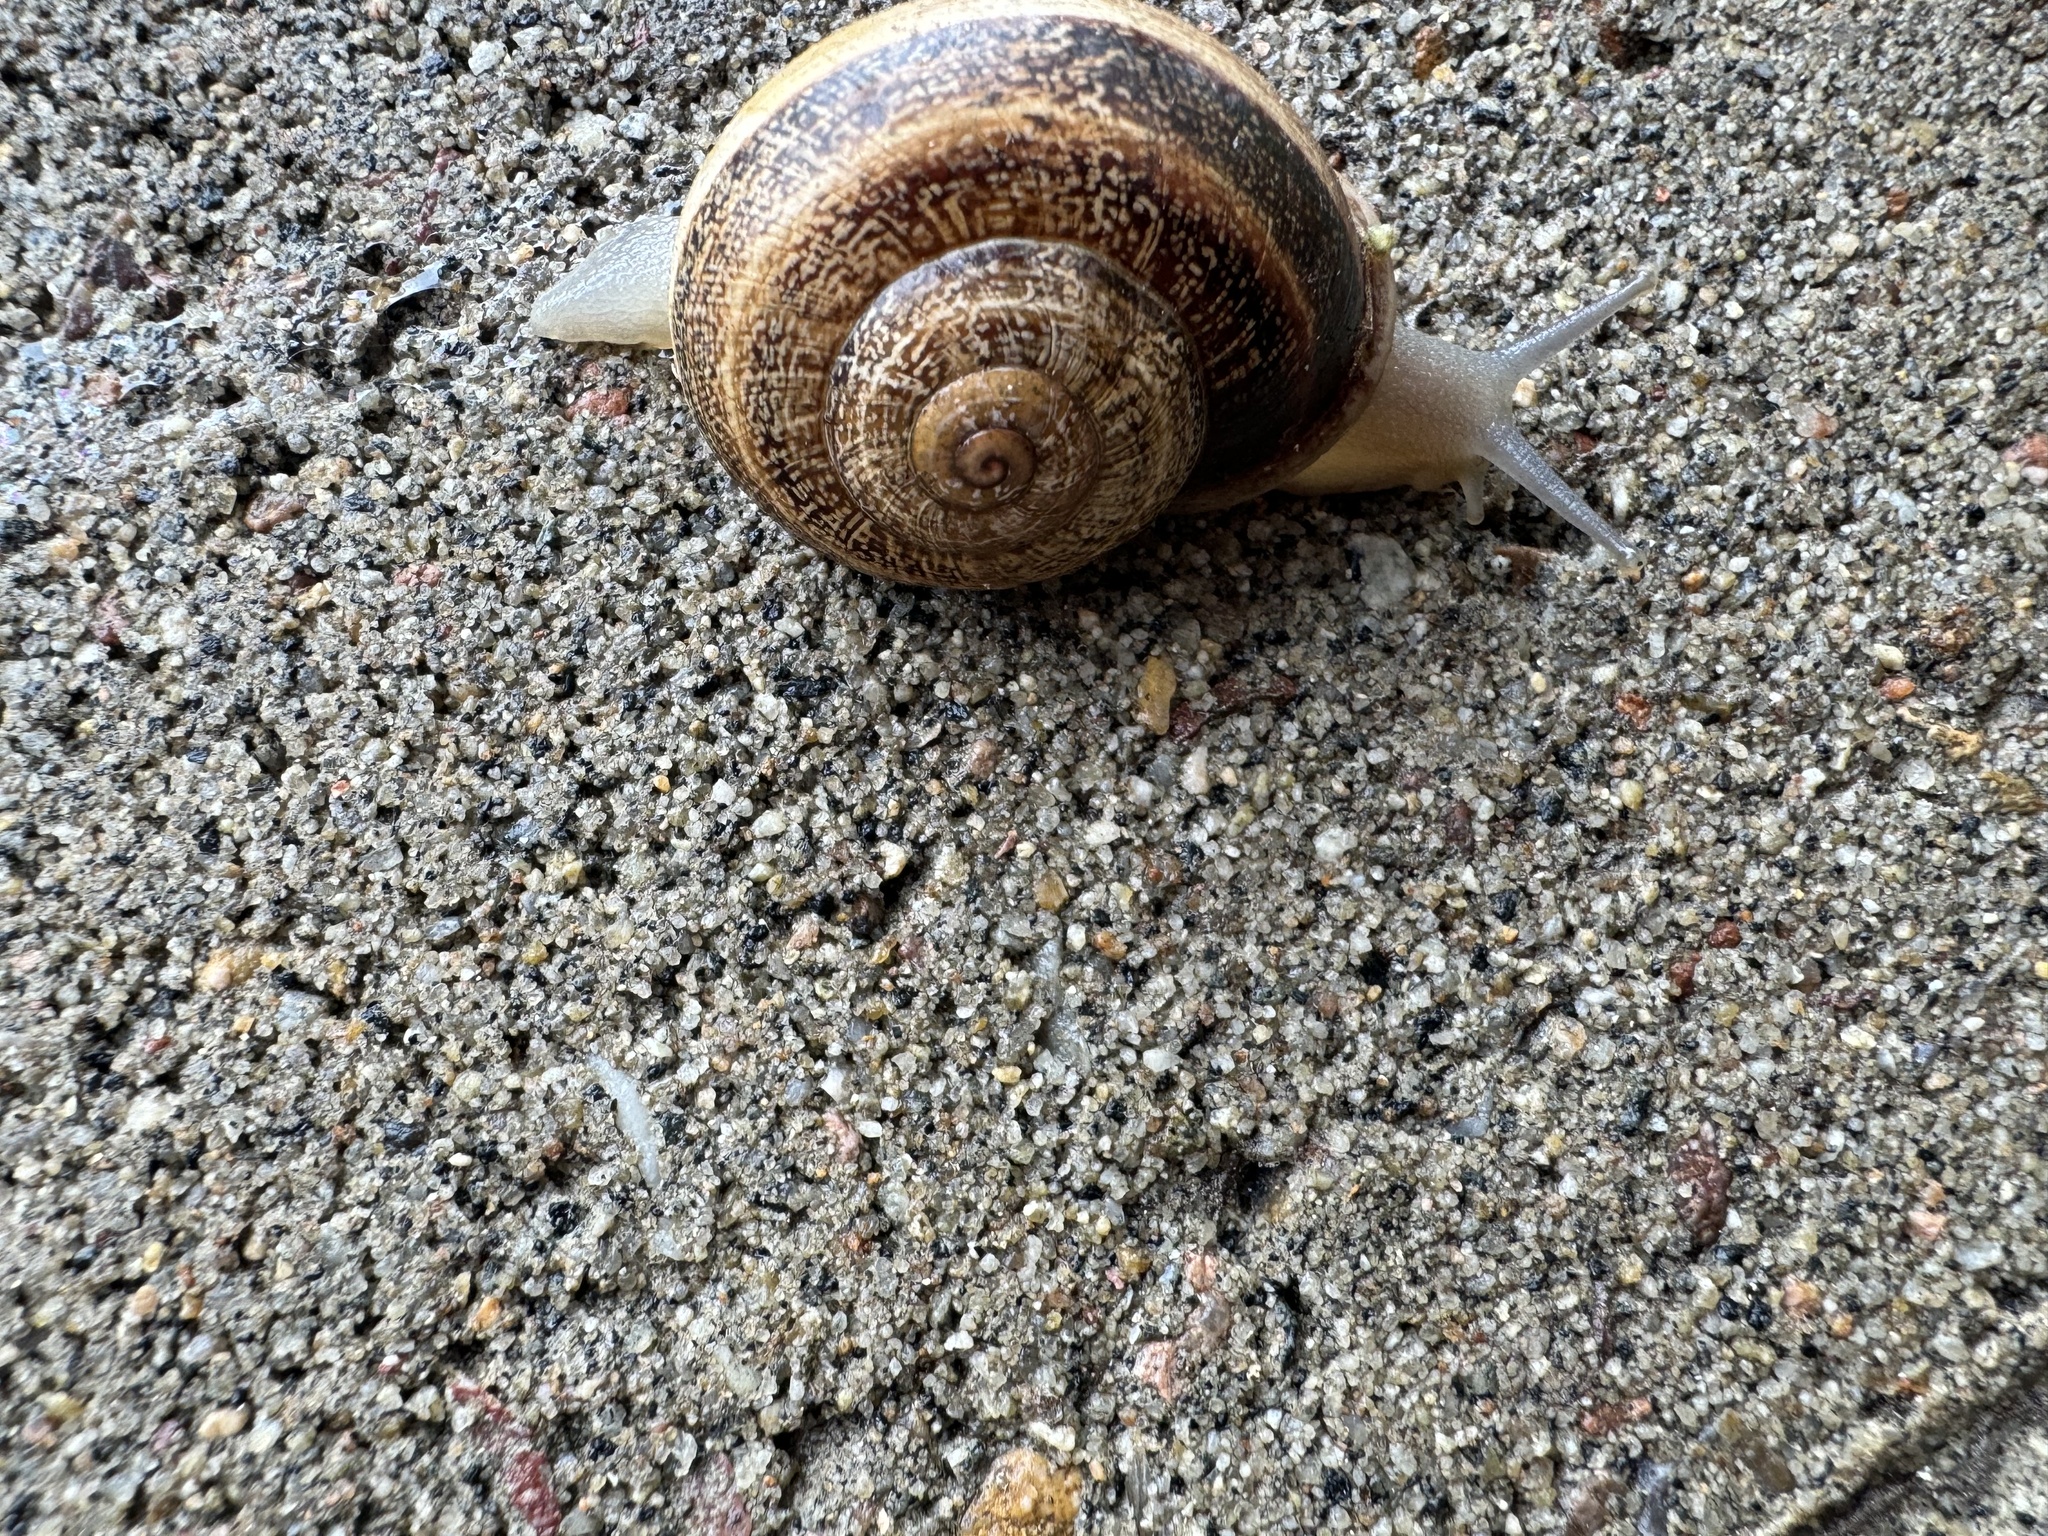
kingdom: Animalia
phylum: Mollusca
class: Gastropoda
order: Stylommatophora
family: Helicidae
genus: Otala
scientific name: Otala lactea
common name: Milk snail
